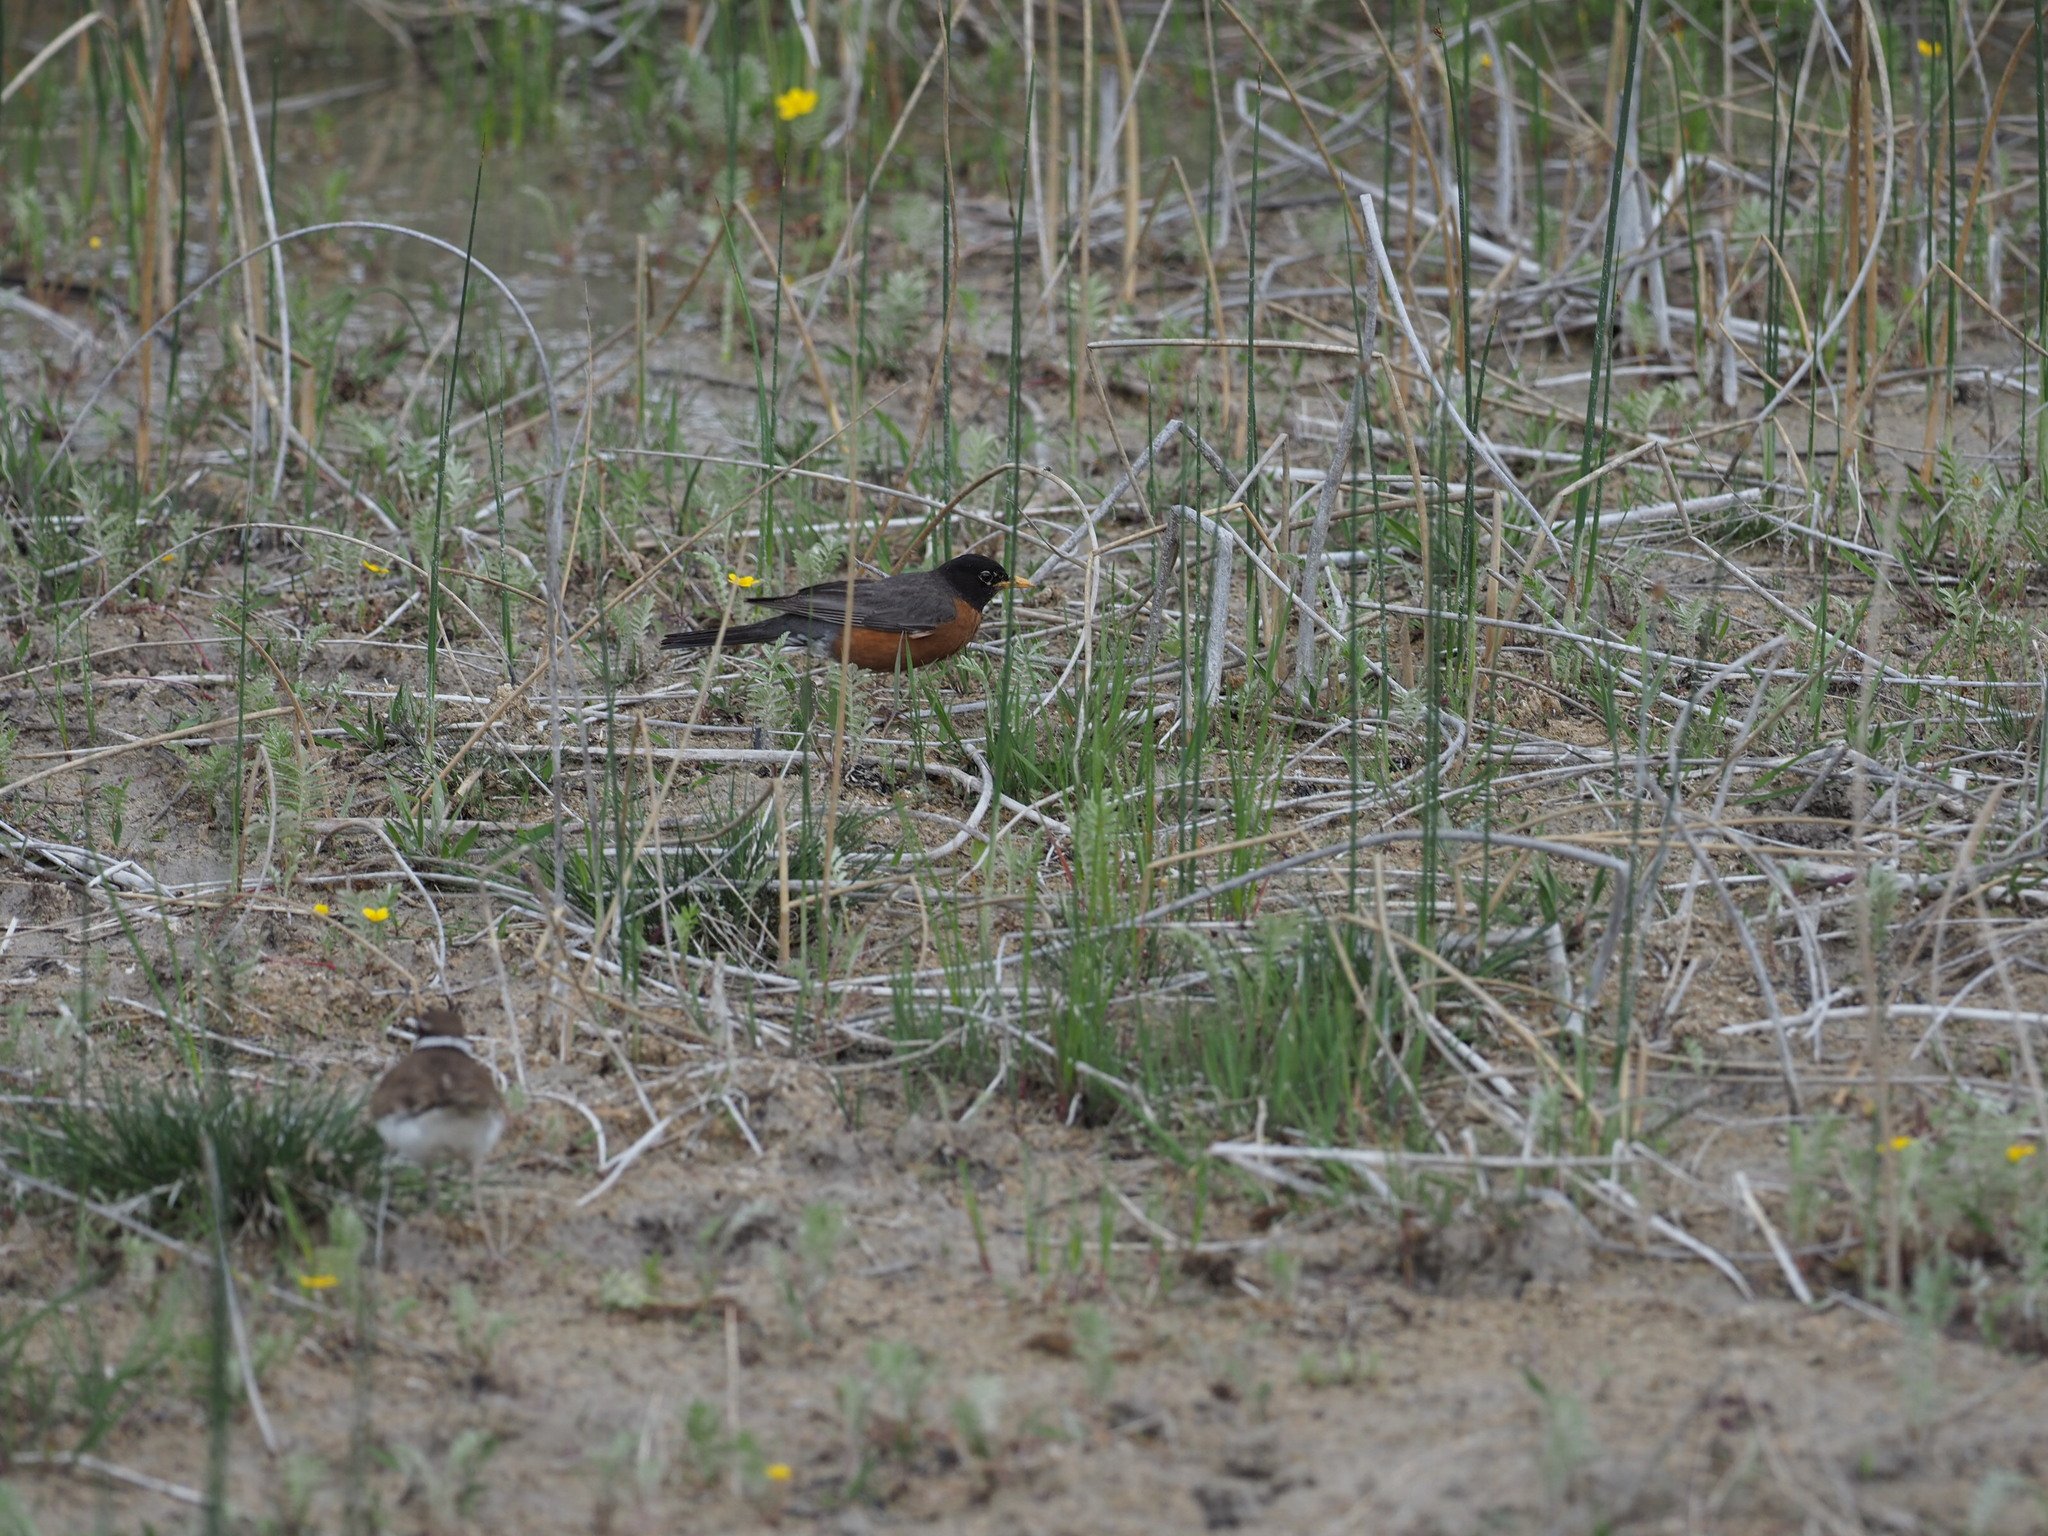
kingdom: Animalia
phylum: Chordata
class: Aves
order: Passeriformes
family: Turdidae
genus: Turdus
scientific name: Turdus migratorius
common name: American robin
